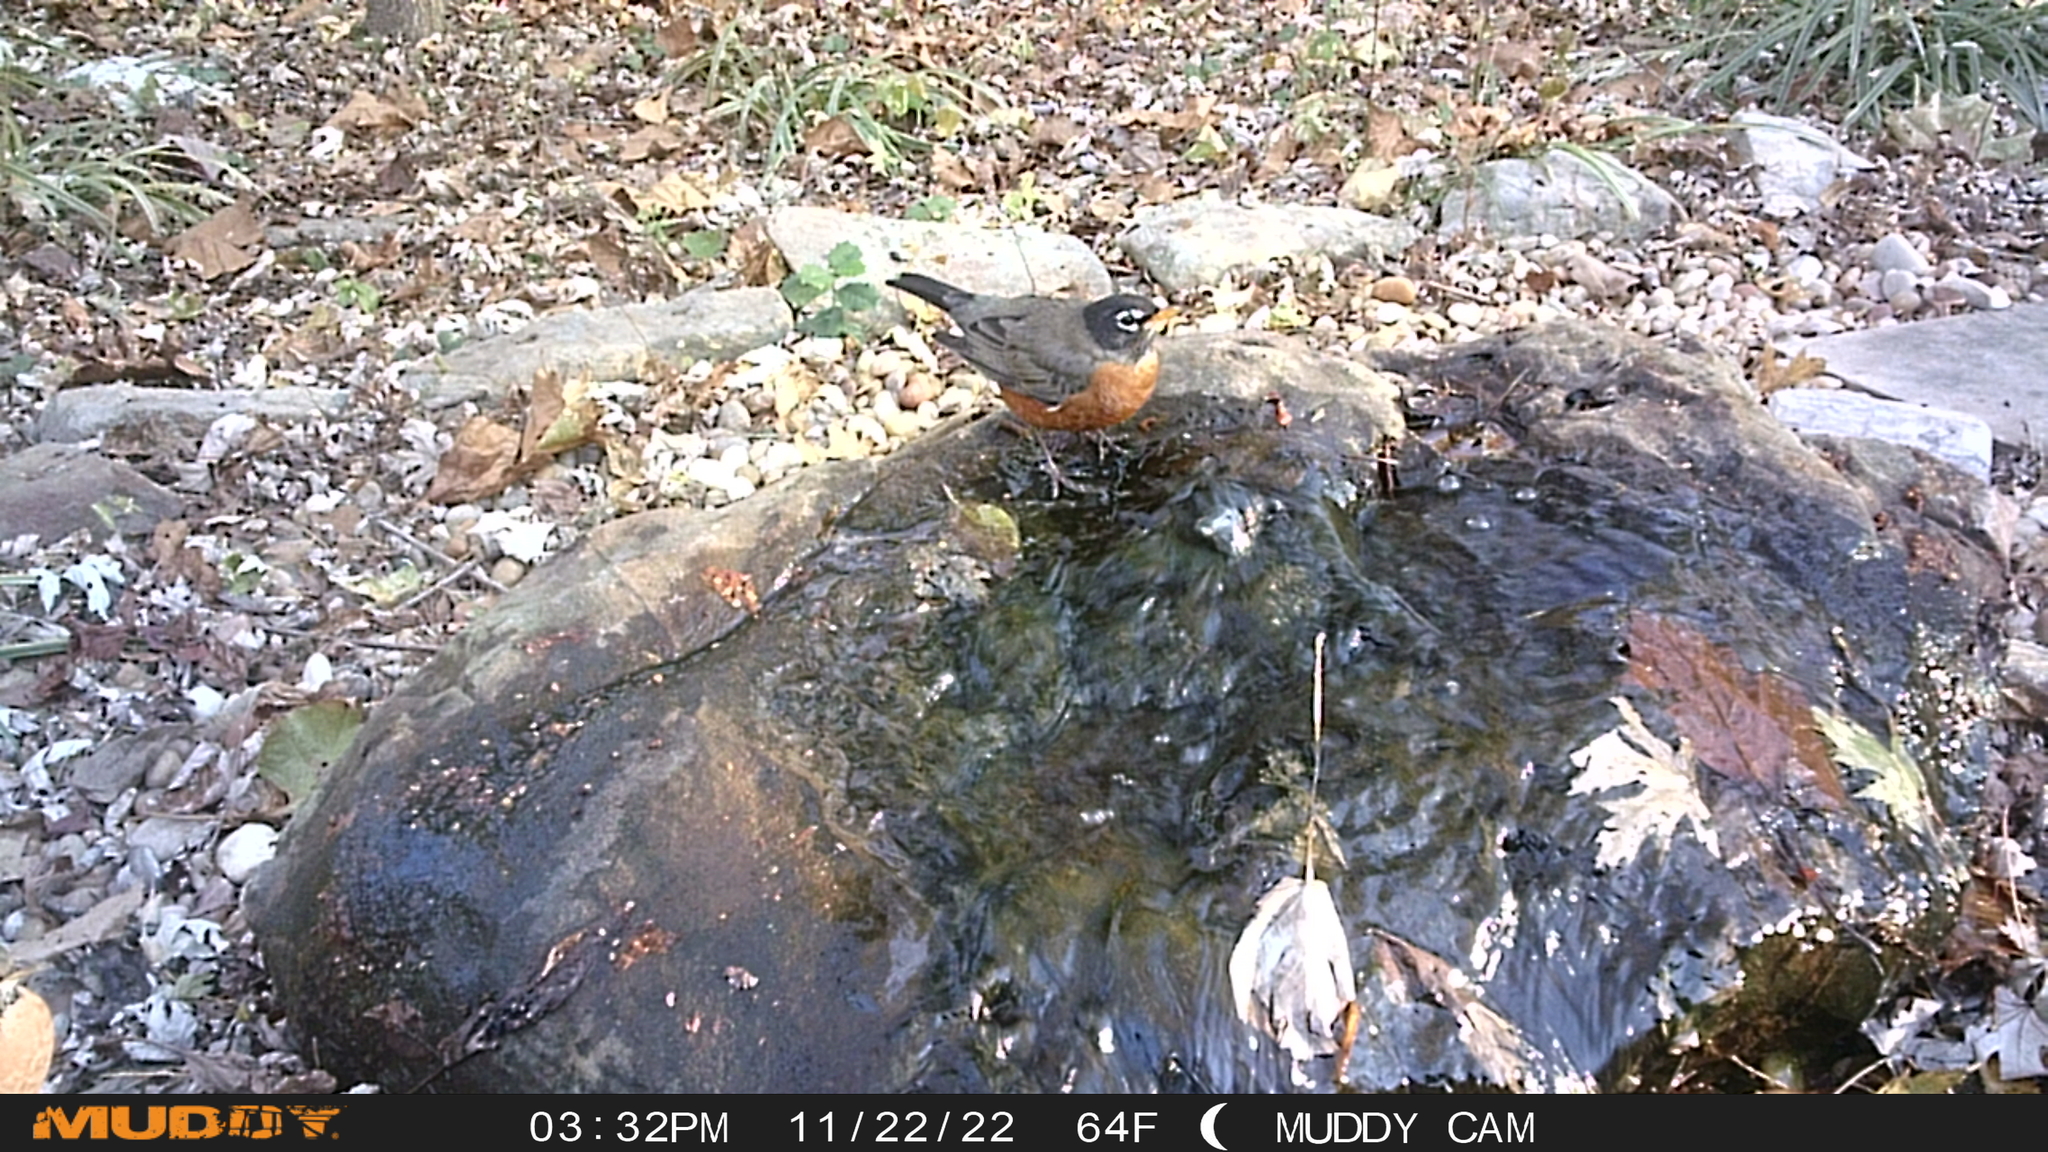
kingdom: Animalia
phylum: Chordata
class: Aves
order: Passeriformes
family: Turdidae
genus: Turdus
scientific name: Turdus migratorius
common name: American robin
